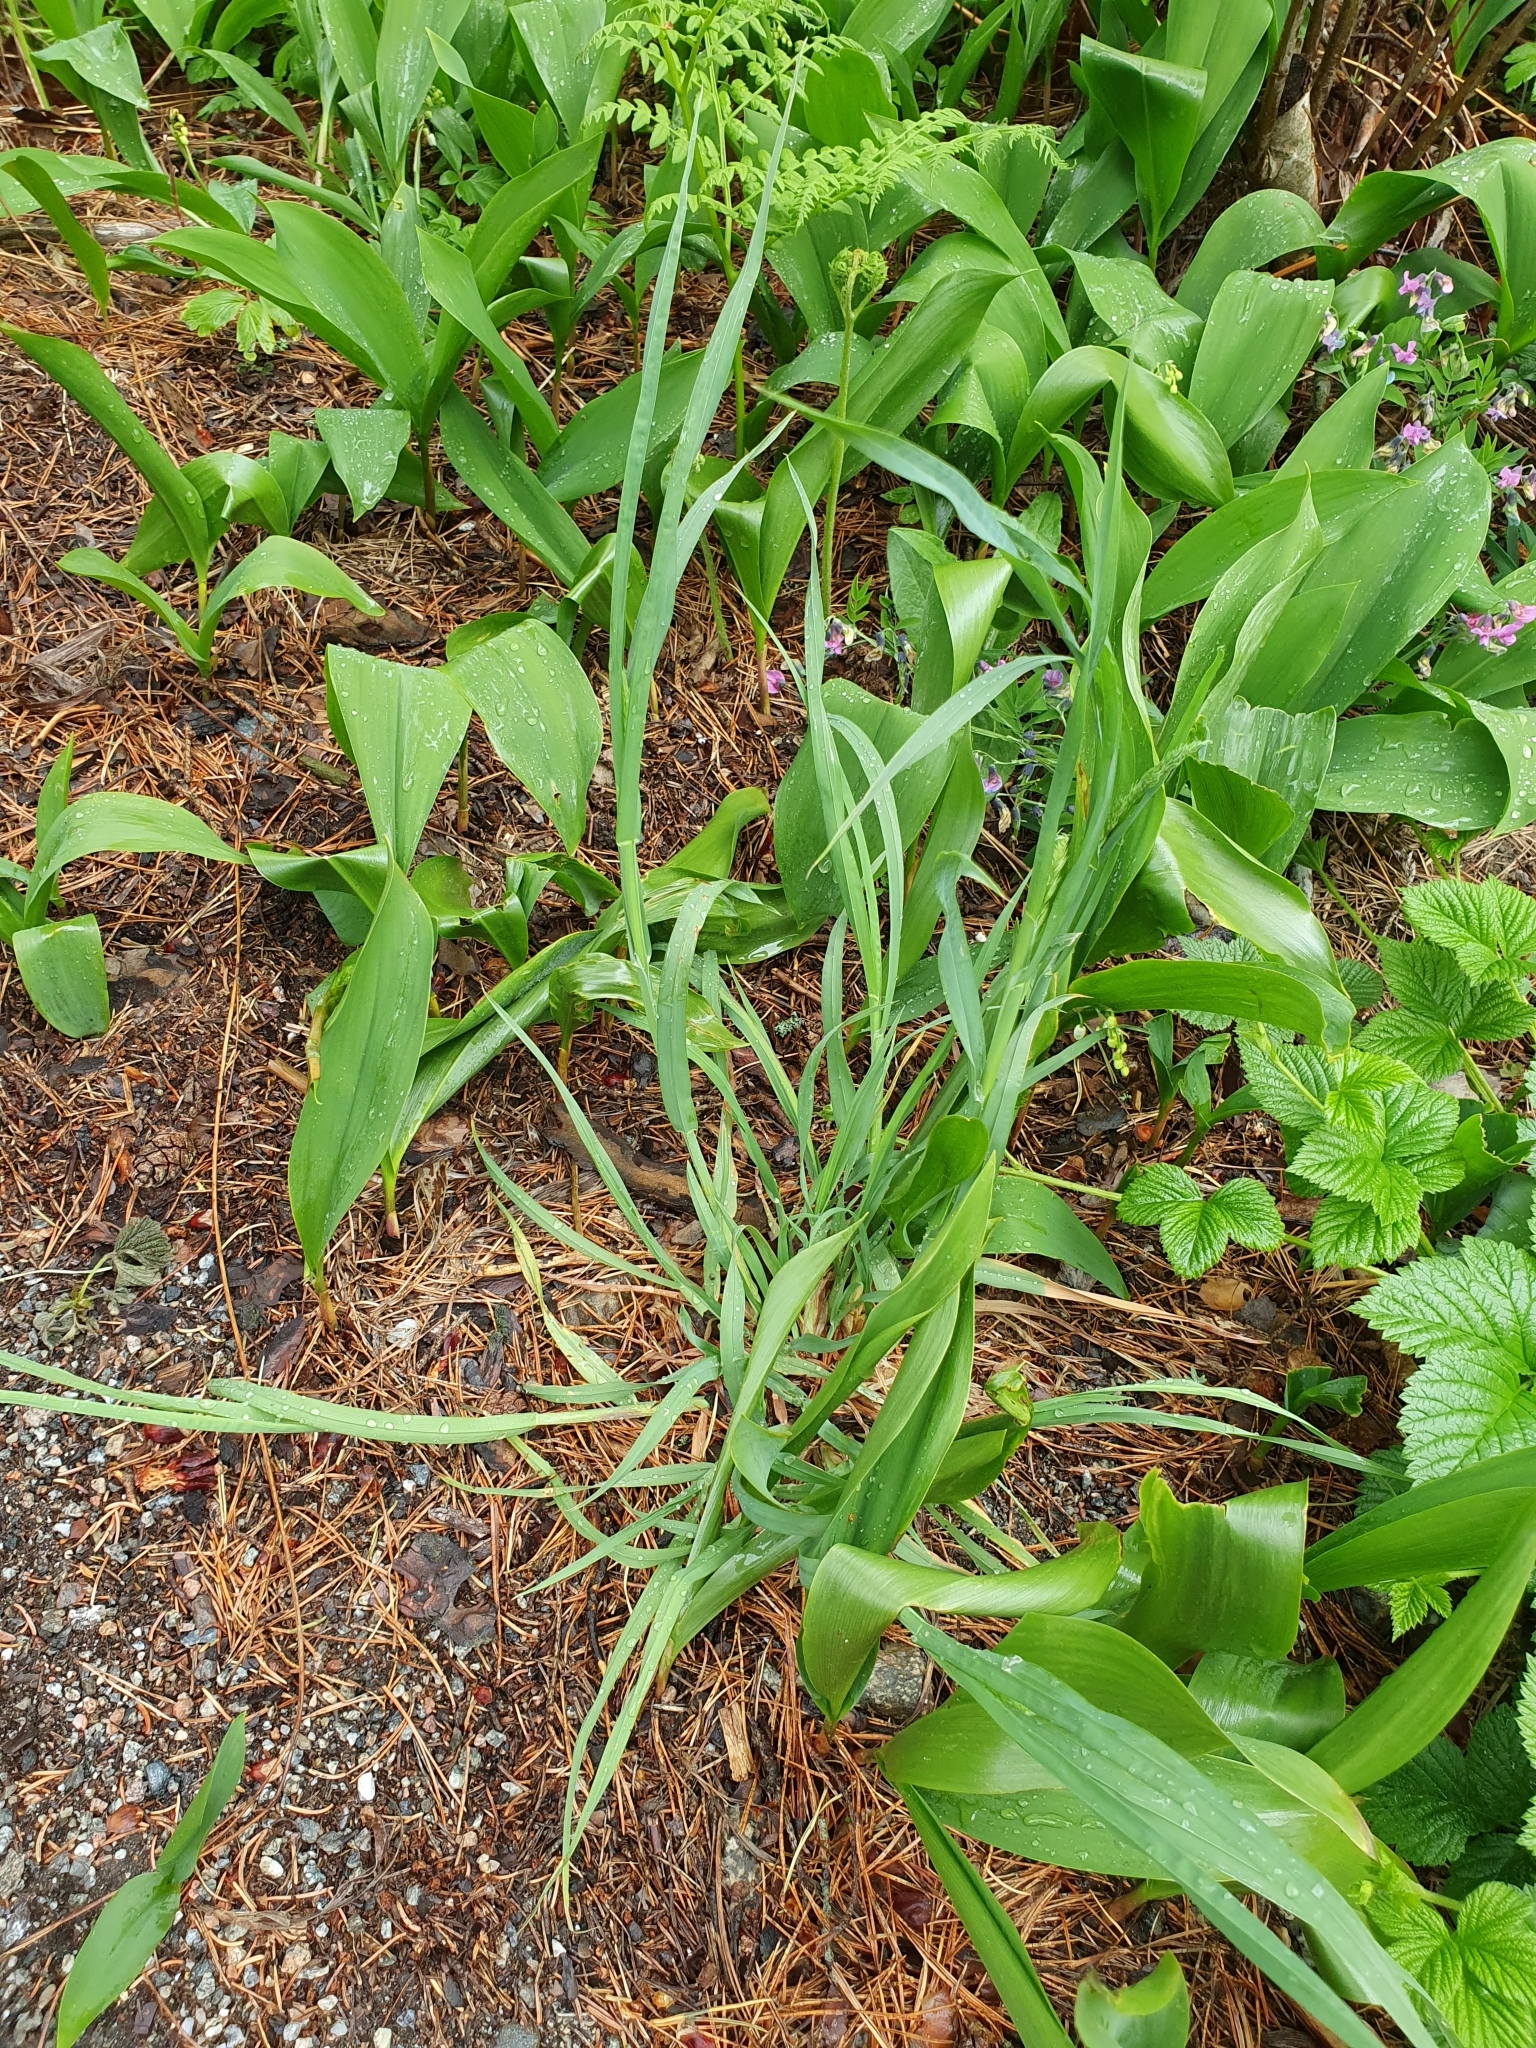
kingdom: Plantae
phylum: Tracheophyta
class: Liliopsida
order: Poales
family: Poaceae
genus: Dactylis
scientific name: Dactylis glomerata
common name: Orchardgrass
